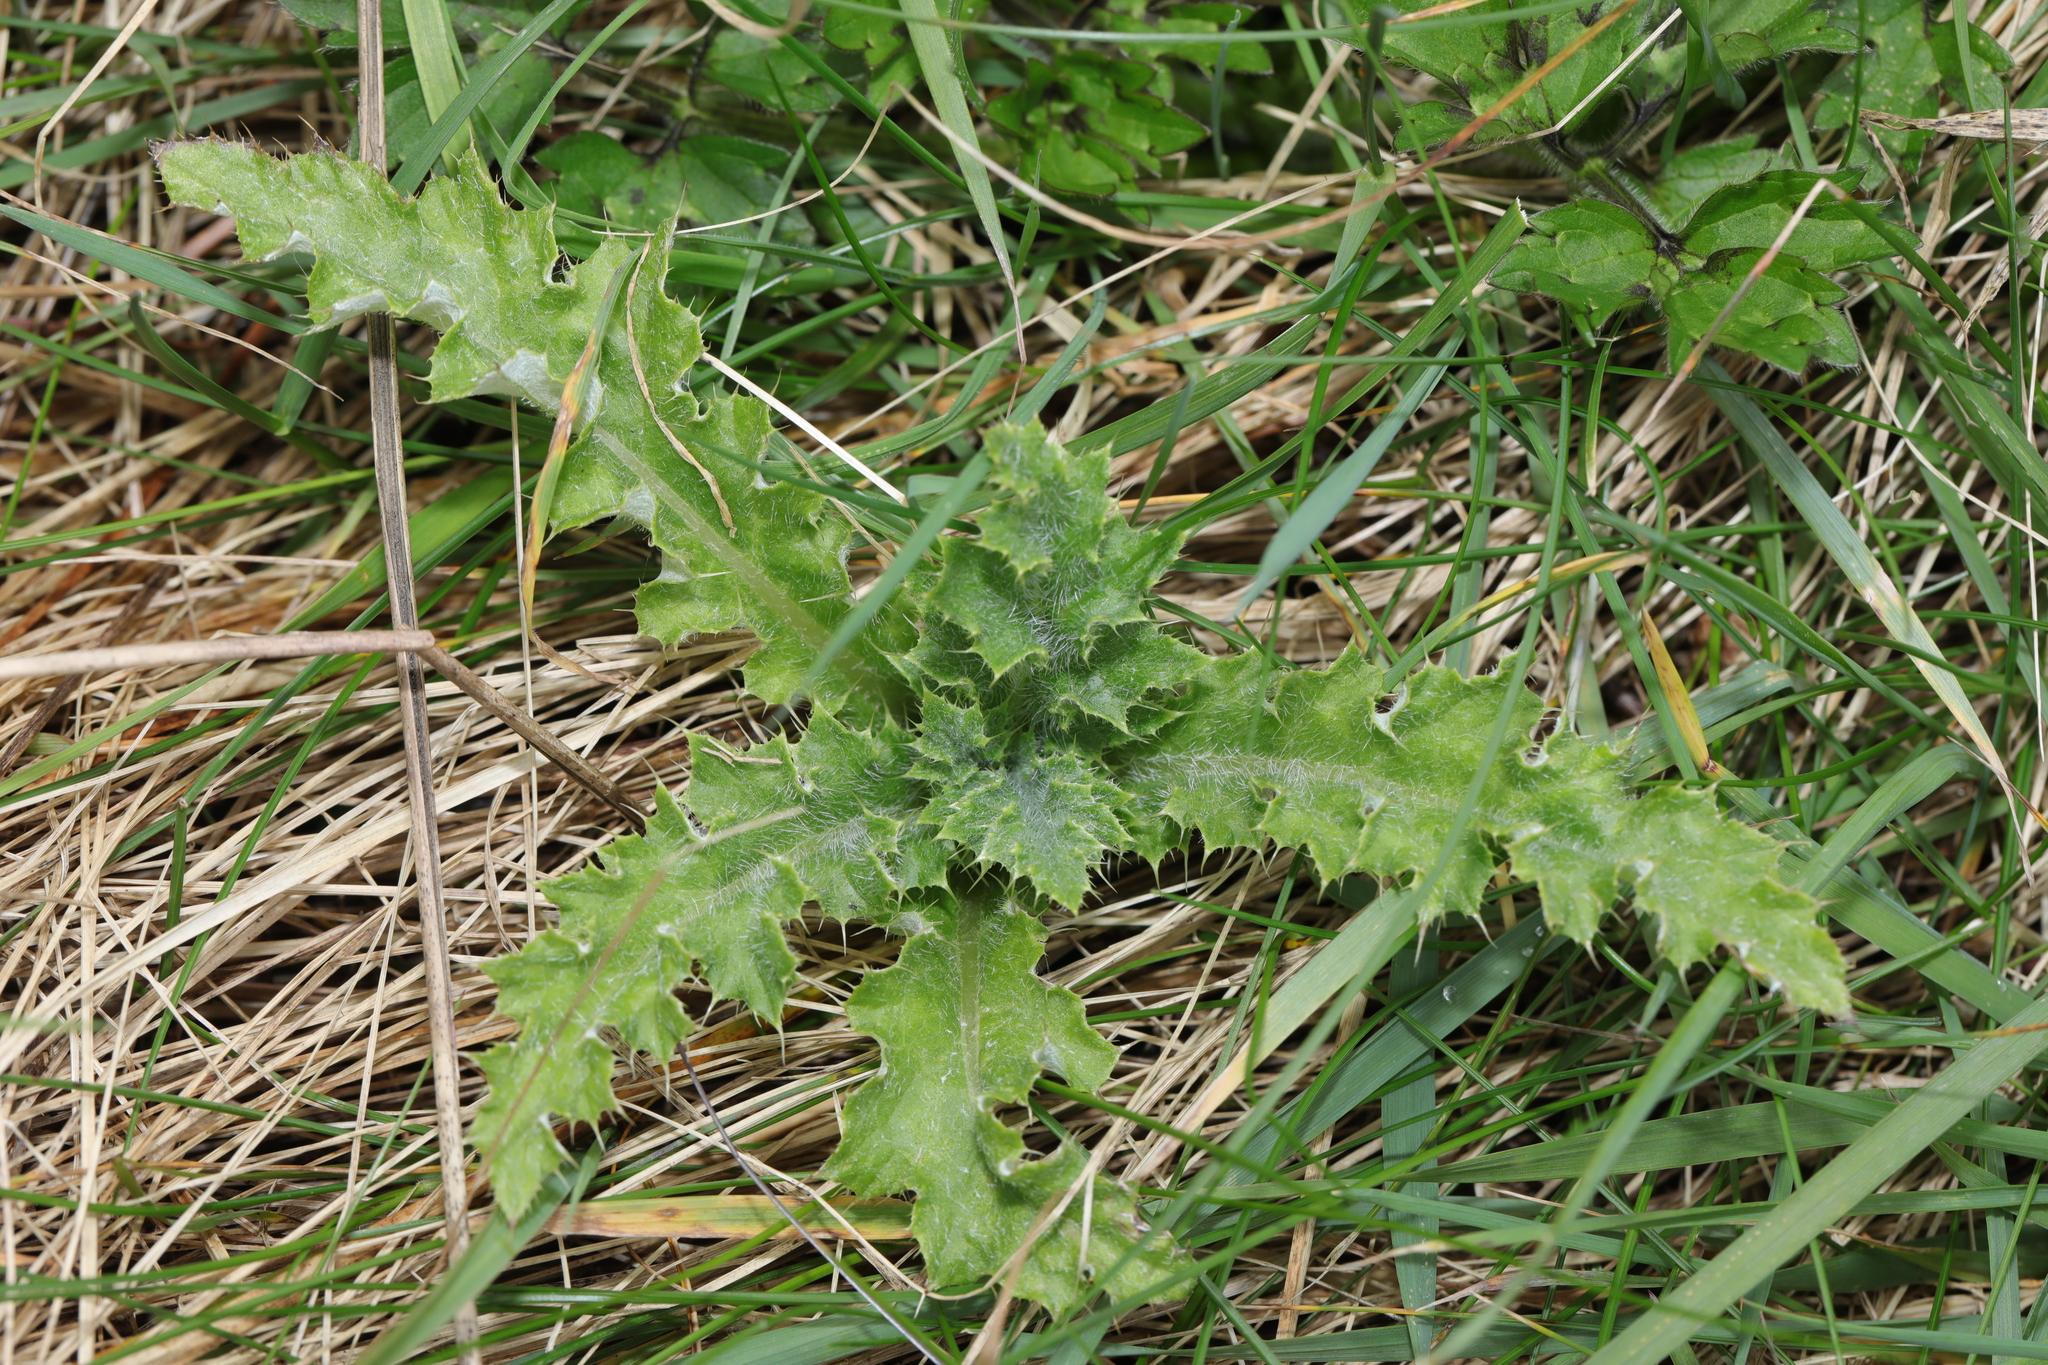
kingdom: Plantae
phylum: Tracheophyta
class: Magnoliopsida
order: Asterales
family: Asteraceae
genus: Cirsium
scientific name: Cirsium arvense
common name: Creeping thistle
